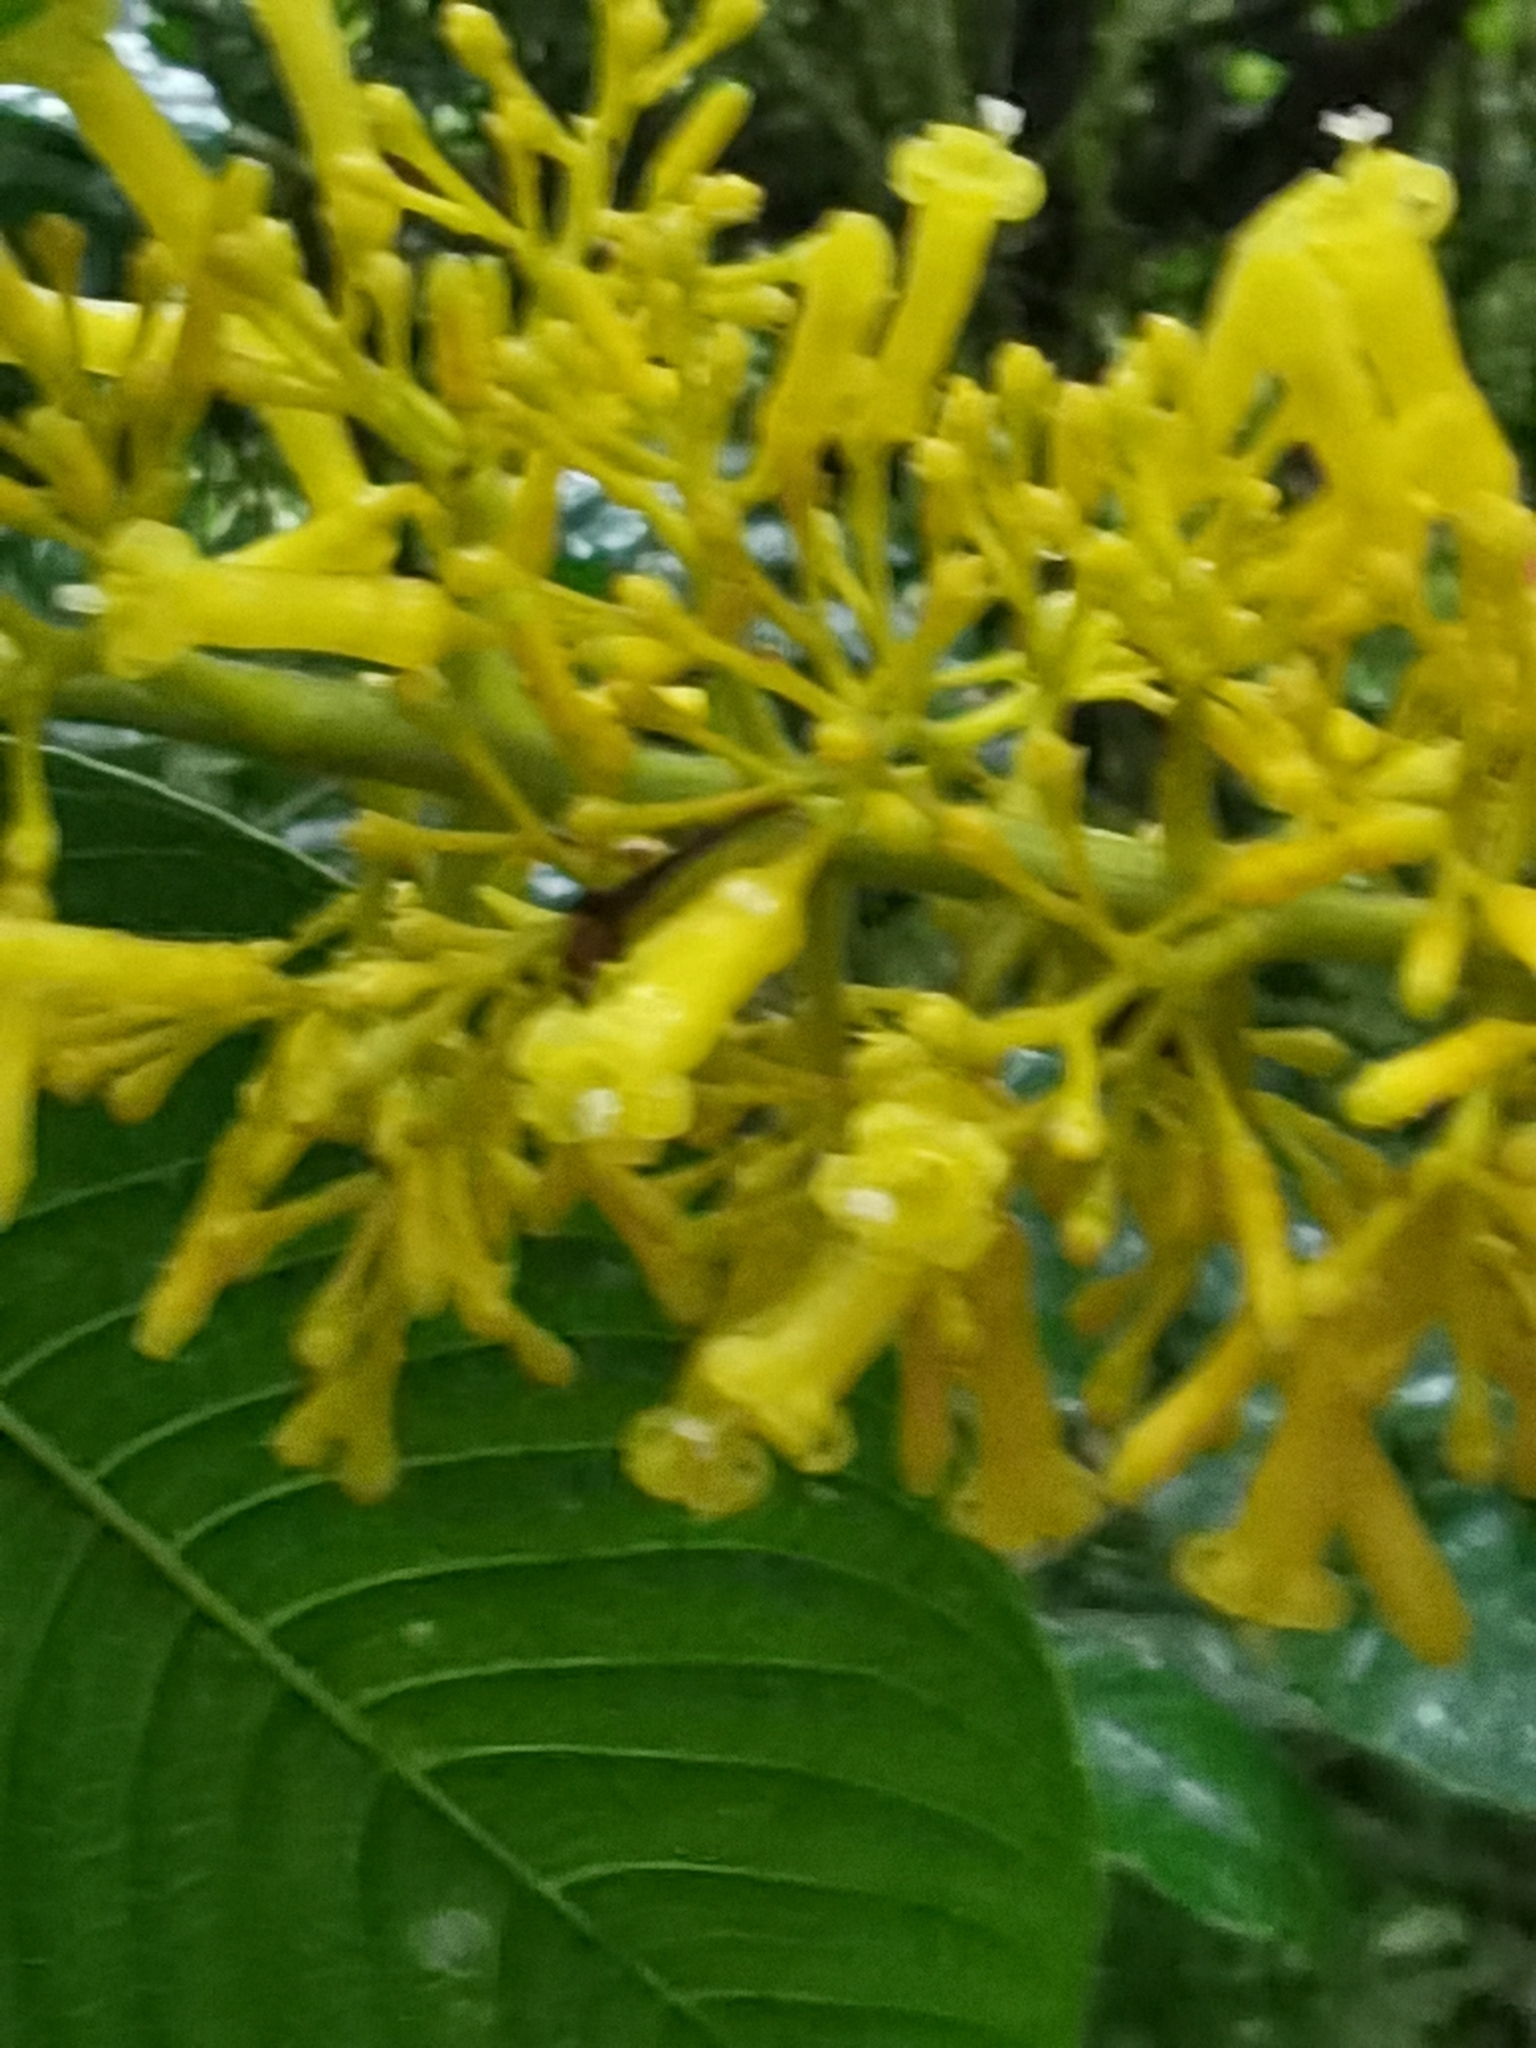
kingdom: Plantae
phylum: Tracheophyta
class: Magnoliopsida
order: Gentianales
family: Rubiaceae
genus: Palicourea
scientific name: Palicourea lasiorrhachis
